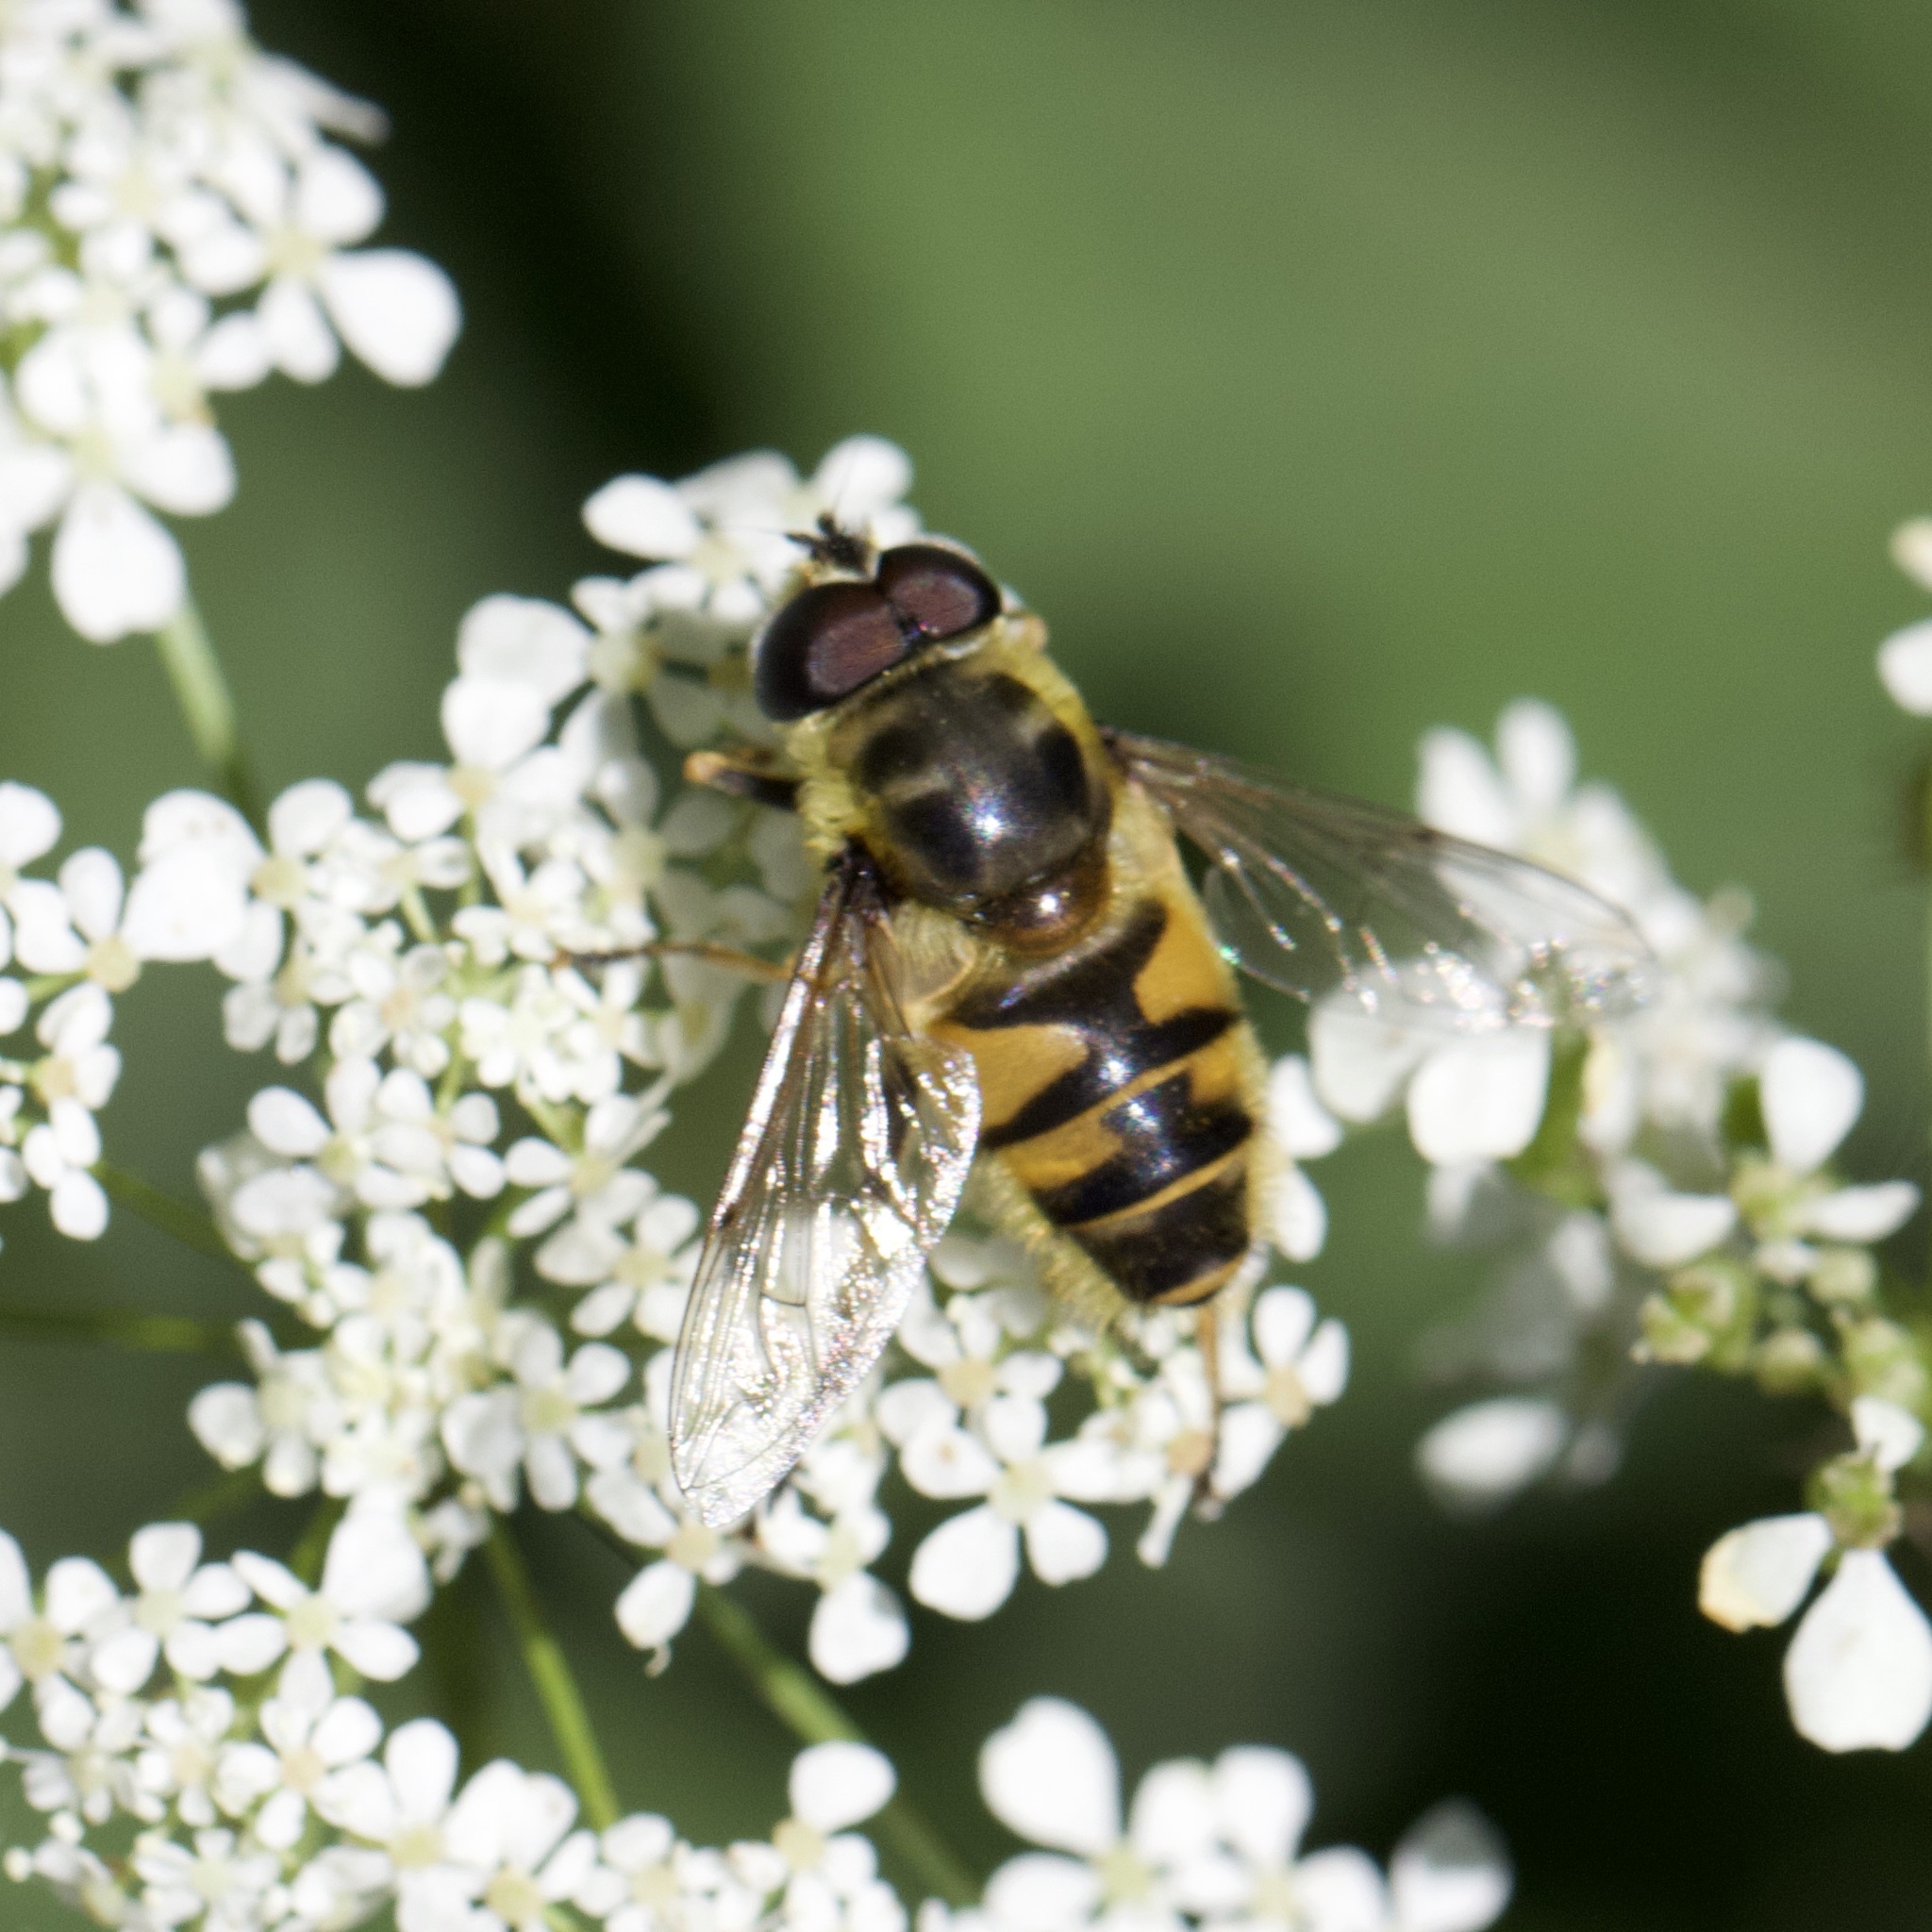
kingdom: Animalia
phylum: Arthropoda
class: Insecta
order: Diptera
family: Syrphidae
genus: Myathropa
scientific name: Myathropa florea
